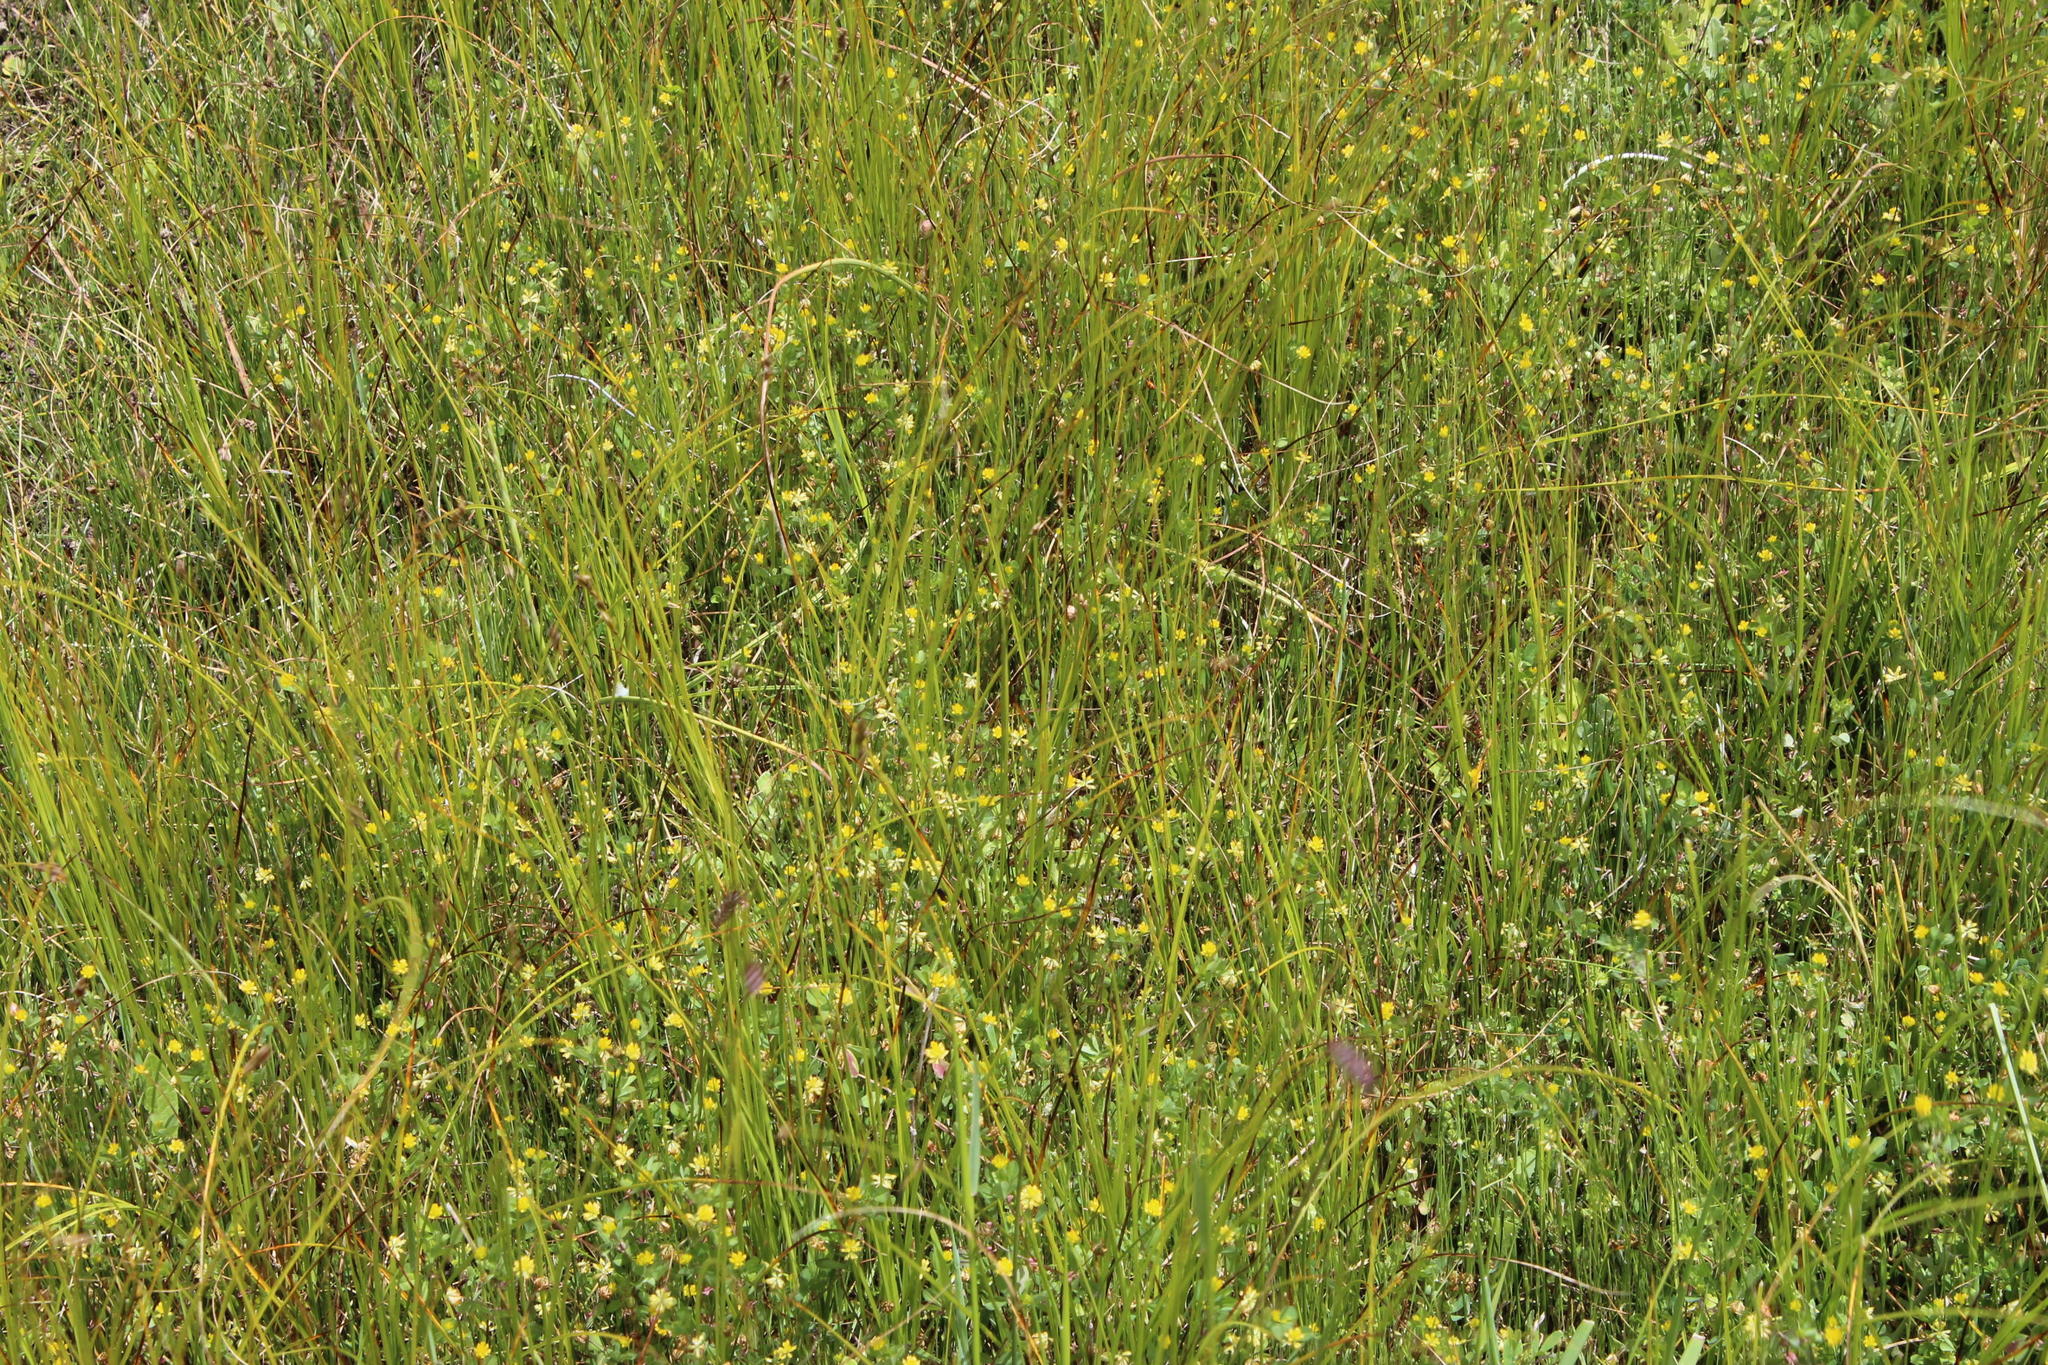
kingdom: Plantae
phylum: Tracheophyta
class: Magnoliopsida
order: Fabales
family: Fabaceae
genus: Trifolium
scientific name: Trifolium dubium
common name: Suckling clover
